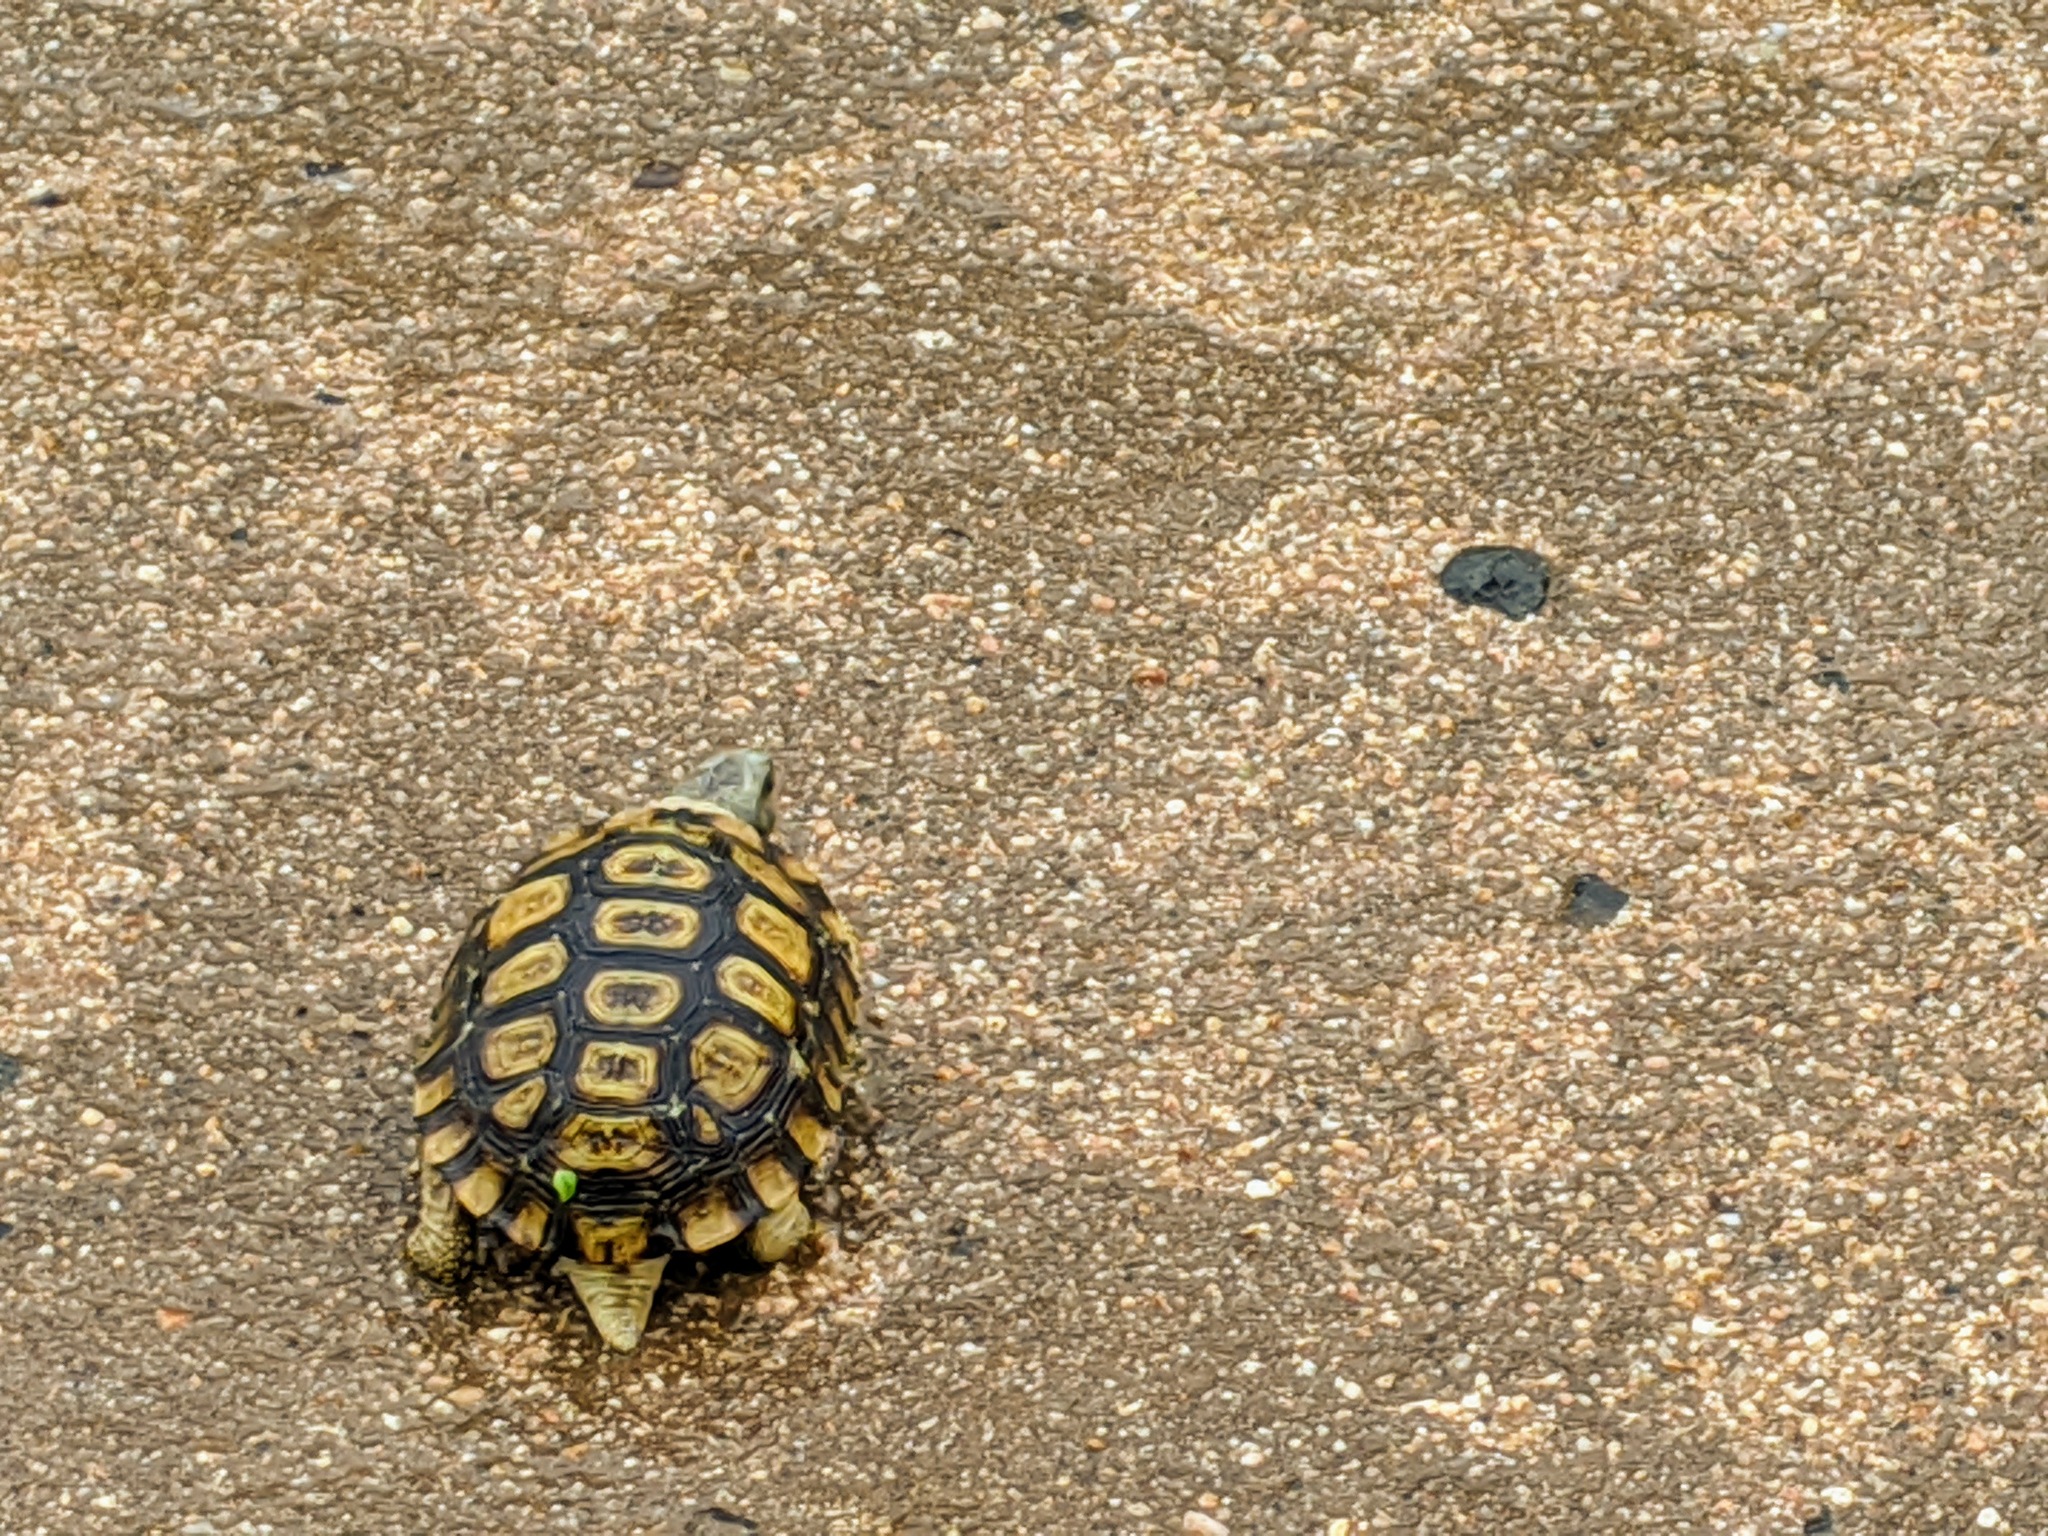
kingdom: Animalia
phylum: Chordata
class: Testudines
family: Testudinidae
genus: Kinixys
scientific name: Kinixys spekii
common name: Speke's hingeback tortoise
